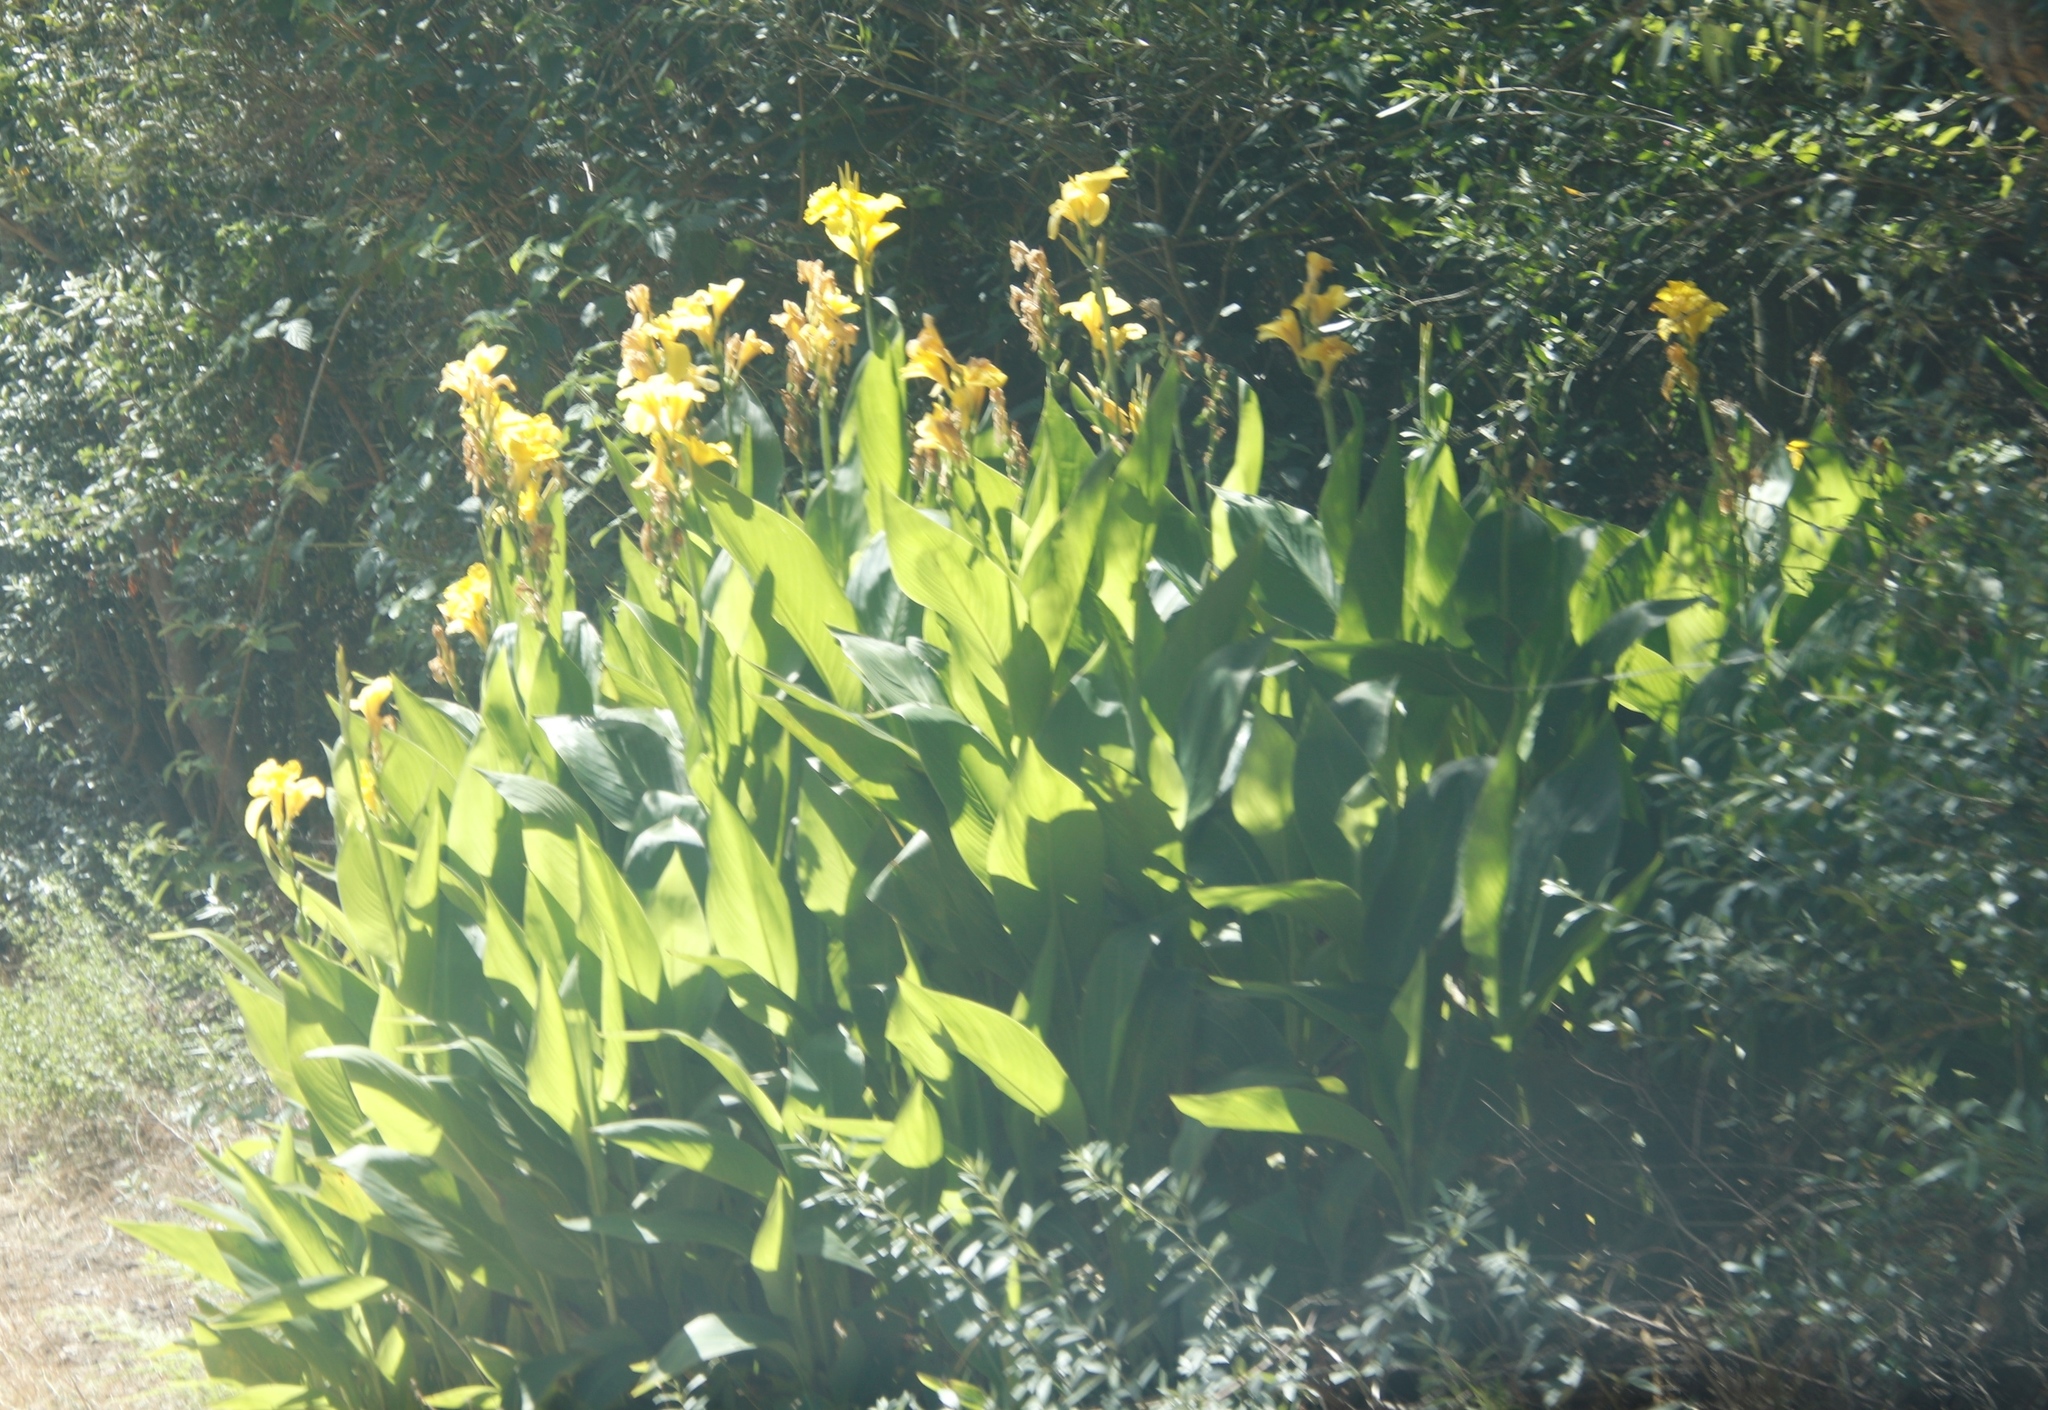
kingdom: Plantae
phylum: Tracheophyta
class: Liliopsida
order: Zingiberales
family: Cannaceae
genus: Canna
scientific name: Canna hybrida
